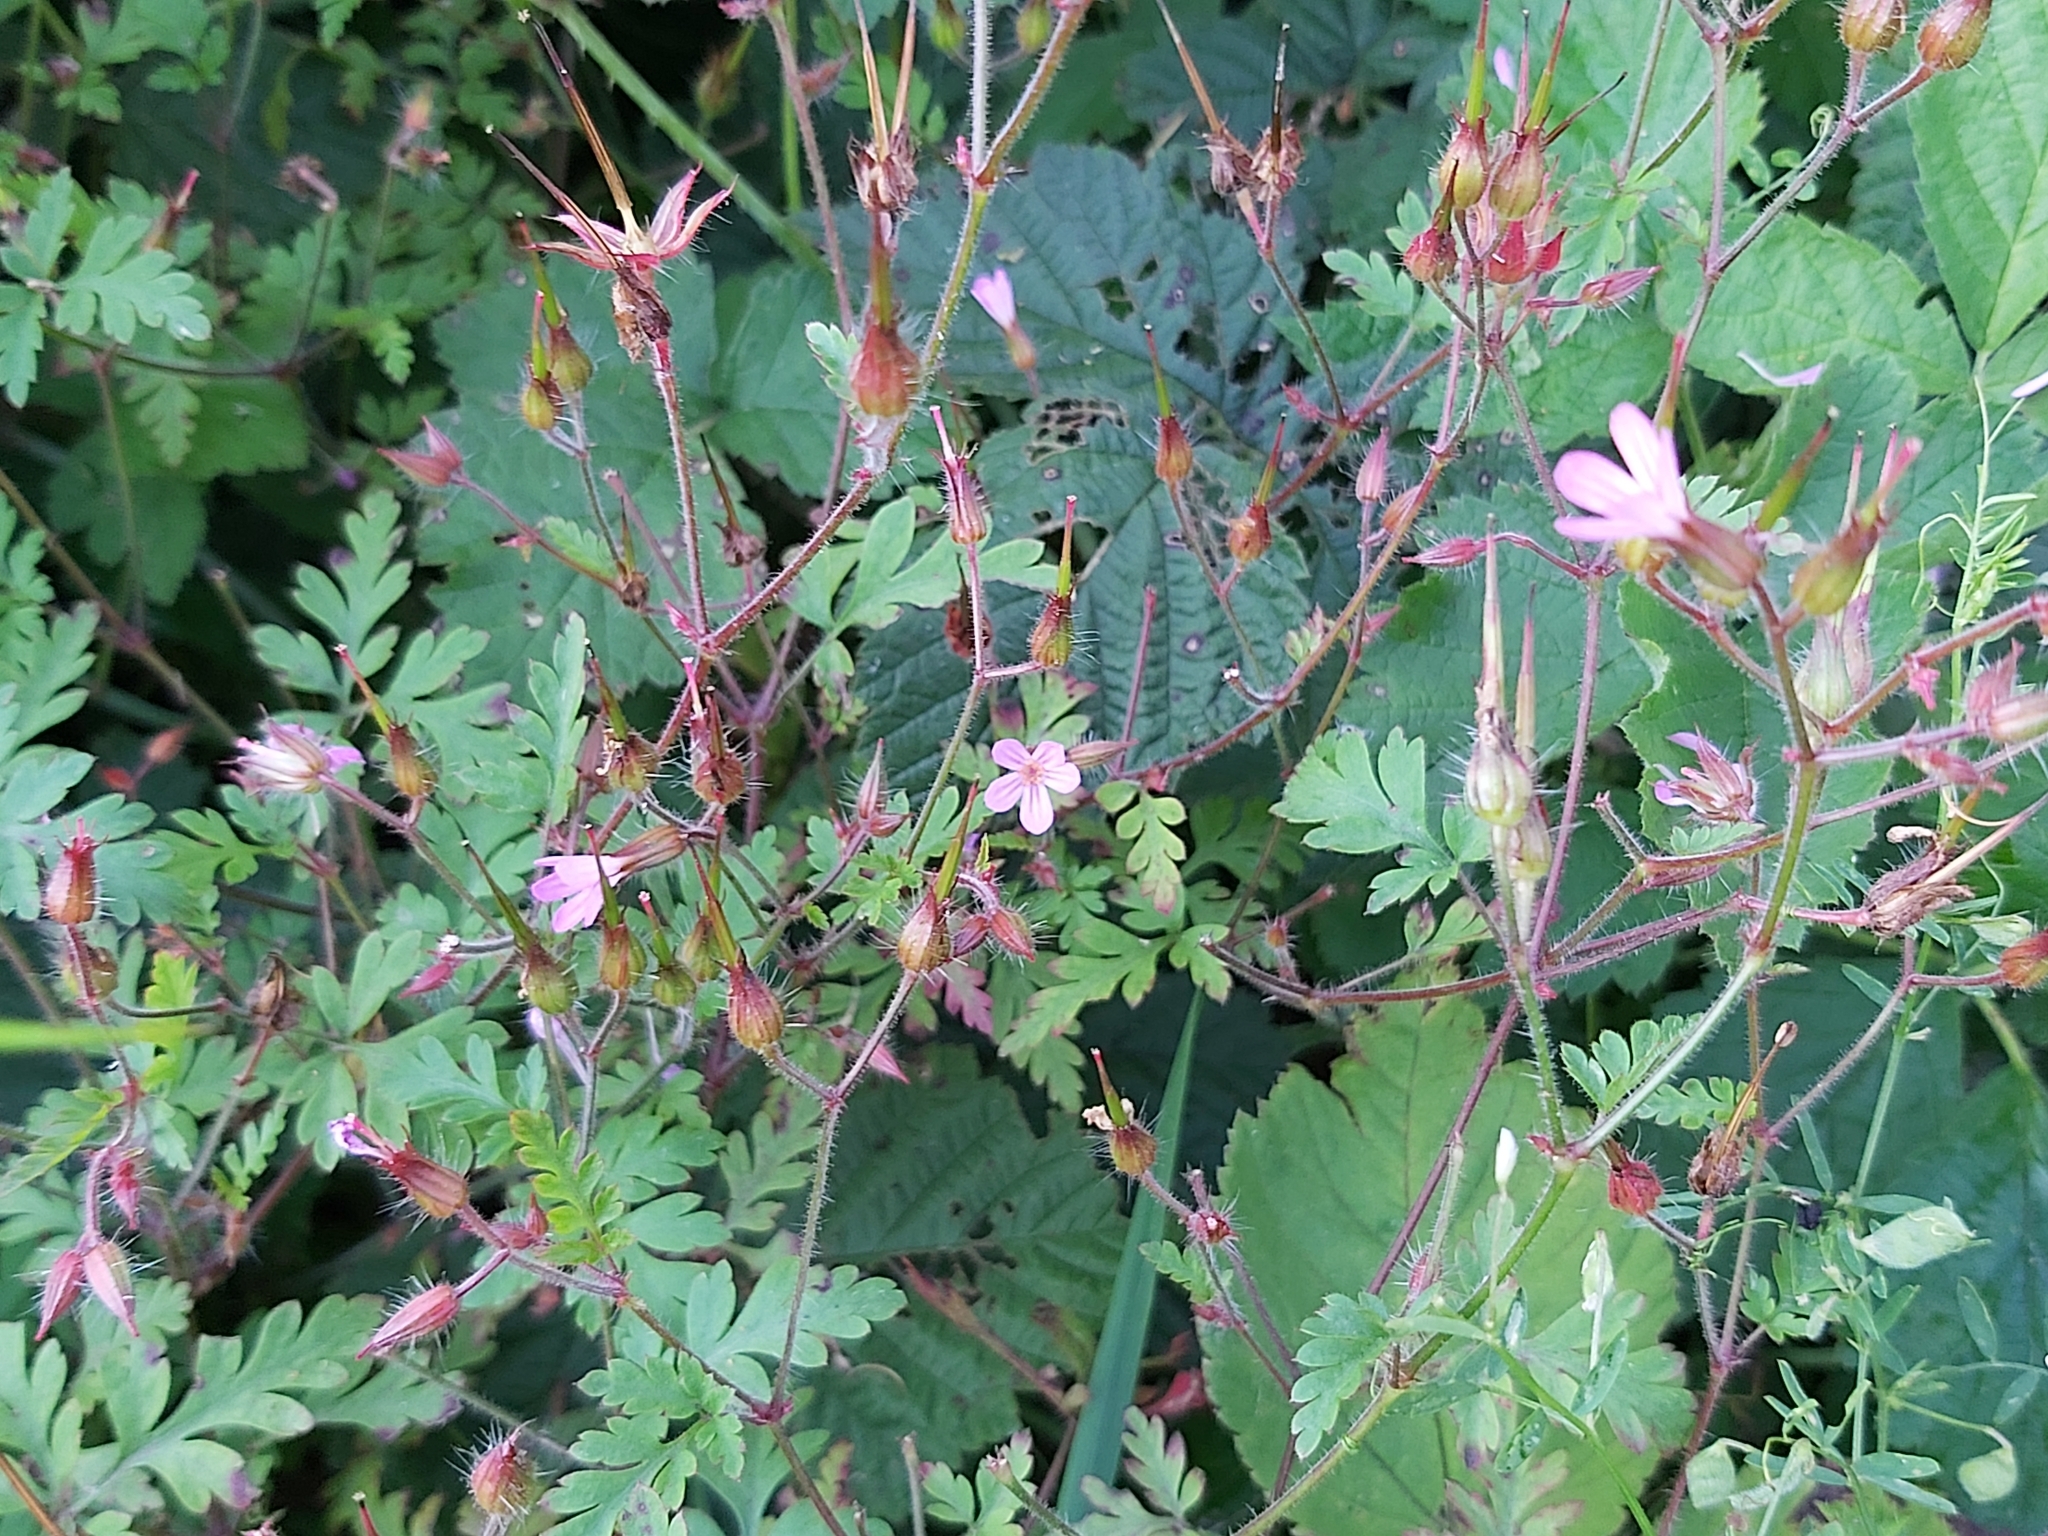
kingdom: Plantae
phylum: Tracheophyta
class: Magnoliopsida
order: Geraniales
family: Geraniaceae
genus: Geranium
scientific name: Geranium robertianum
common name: Herb-robert
